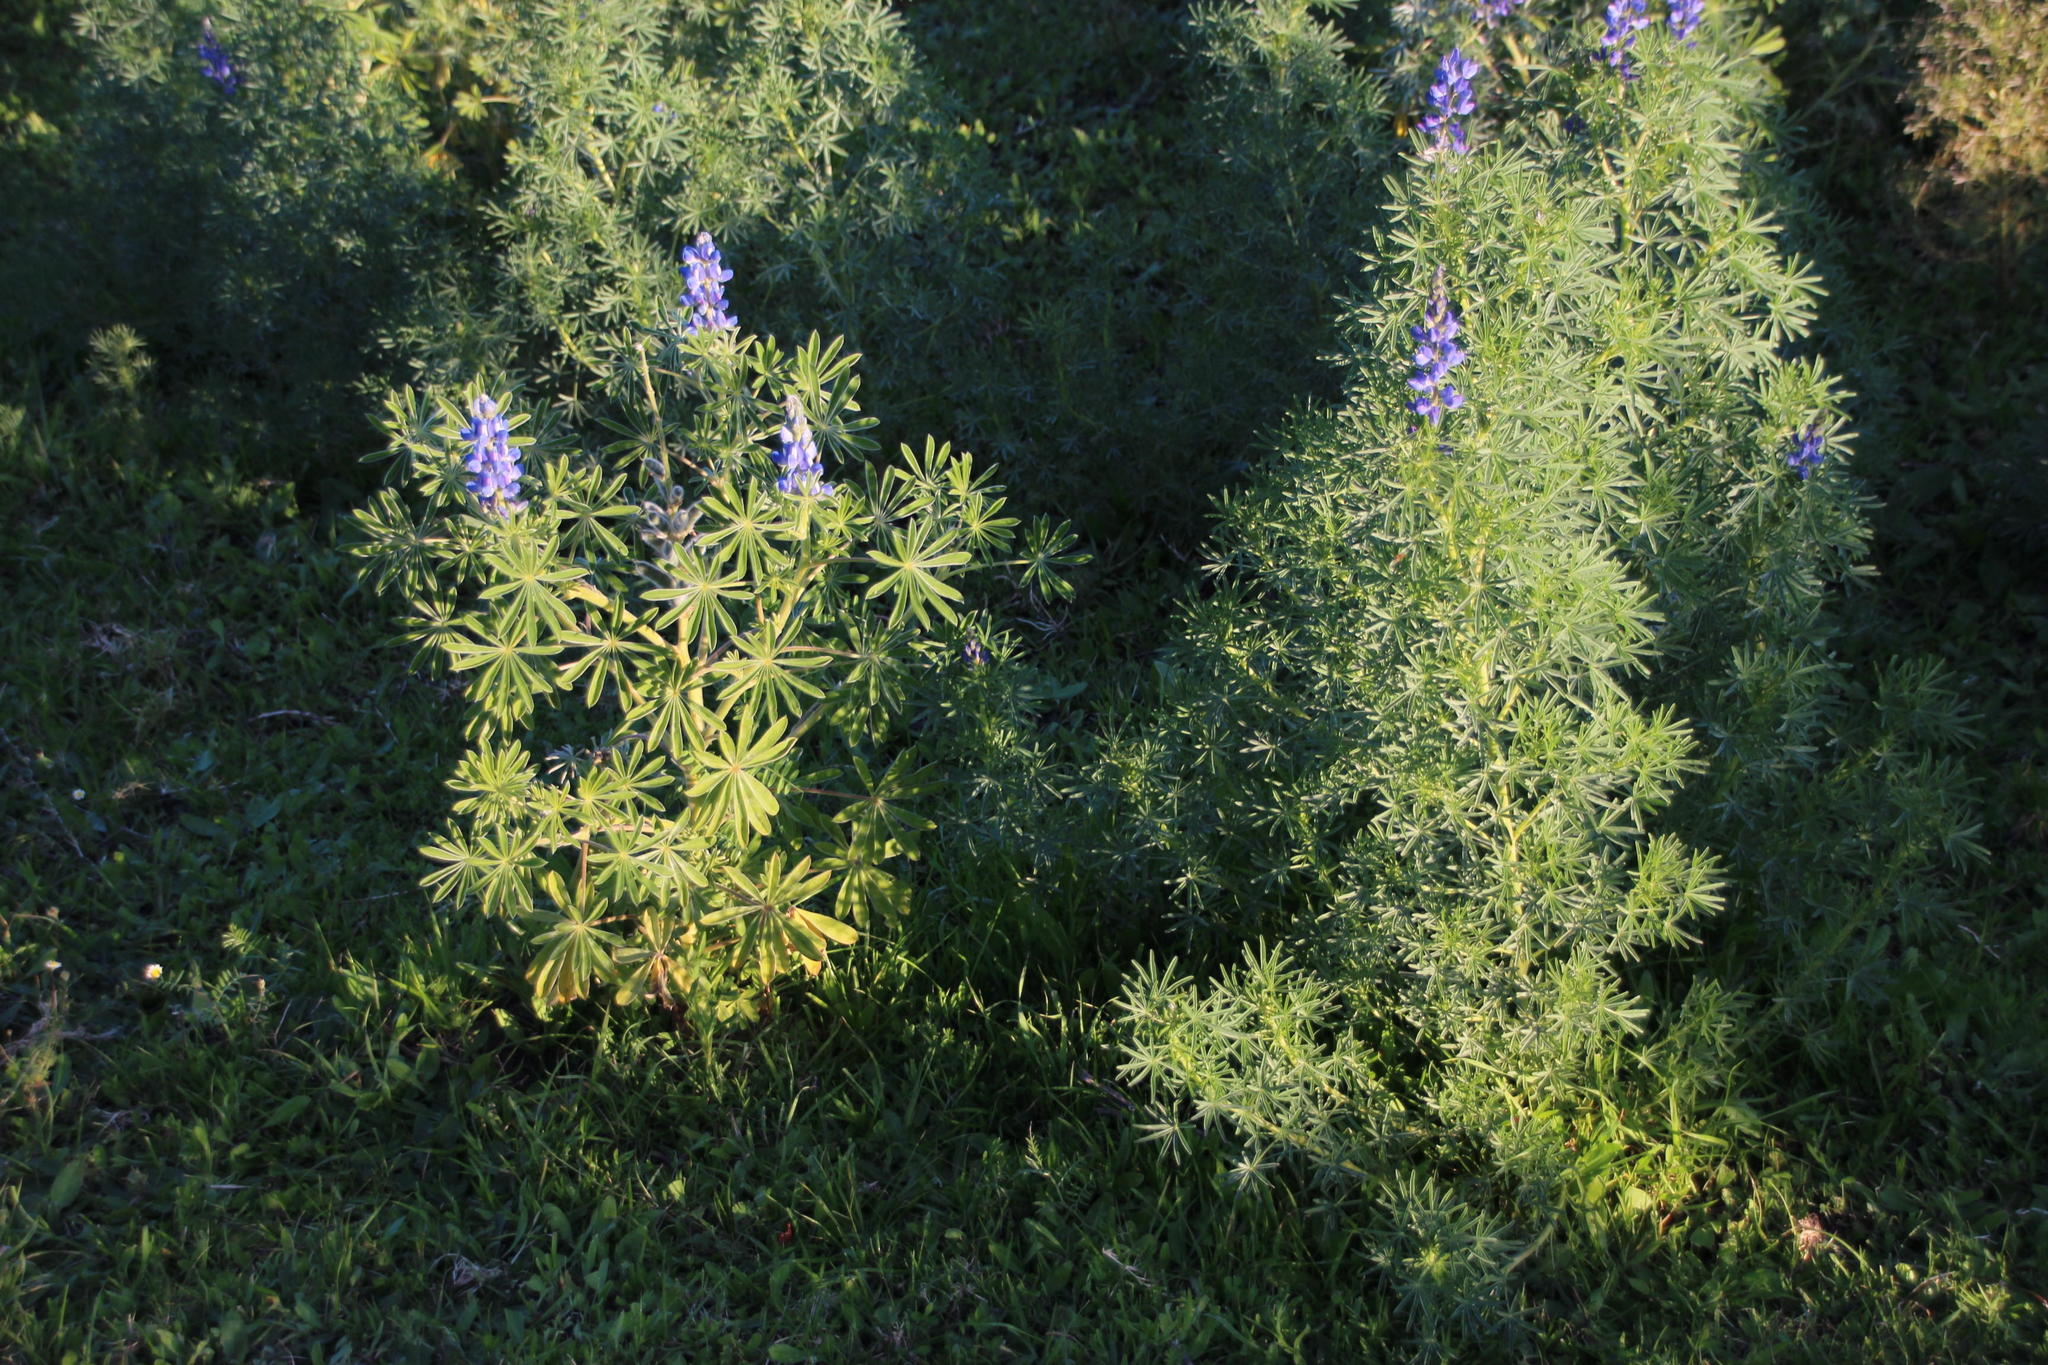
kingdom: Plantae
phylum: Tracheophyta
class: Magnoliopsida
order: Fabales
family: Fabaceae
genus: Lupinus
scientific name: Lupinus angustifolius
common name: Narrow-leaved lupin
